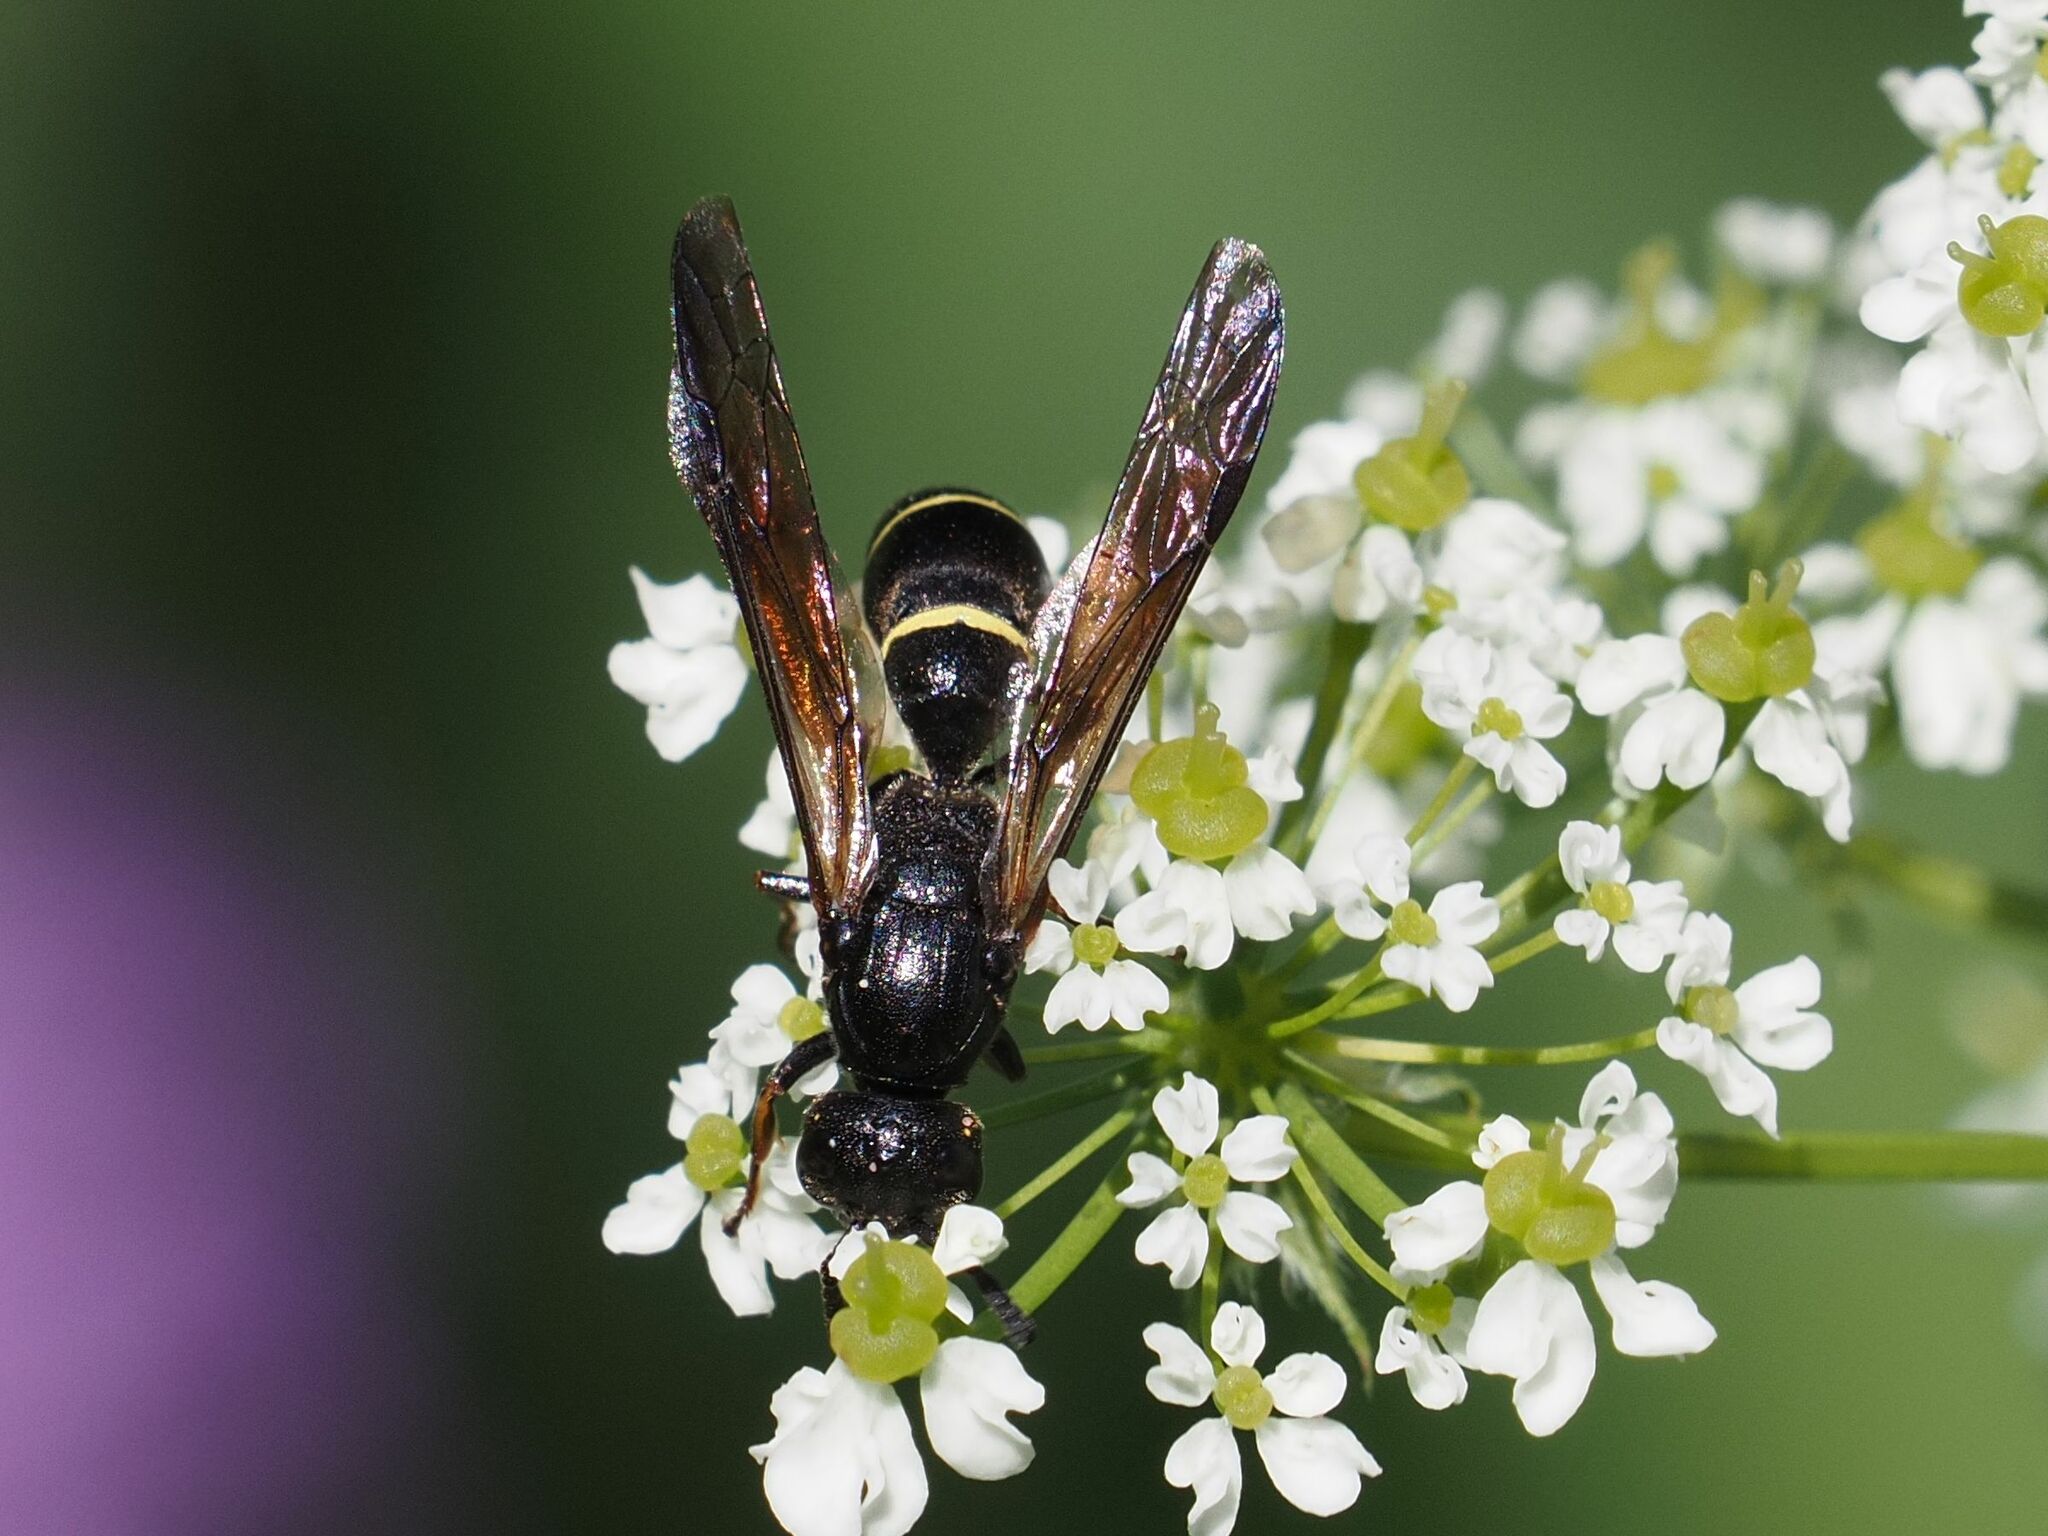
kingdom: Animalia
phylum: Arthropoda
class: Insecta
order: Hymenoptera
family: Eumenidae
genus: Symmorphus
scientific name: Symmorphus allobrogus
